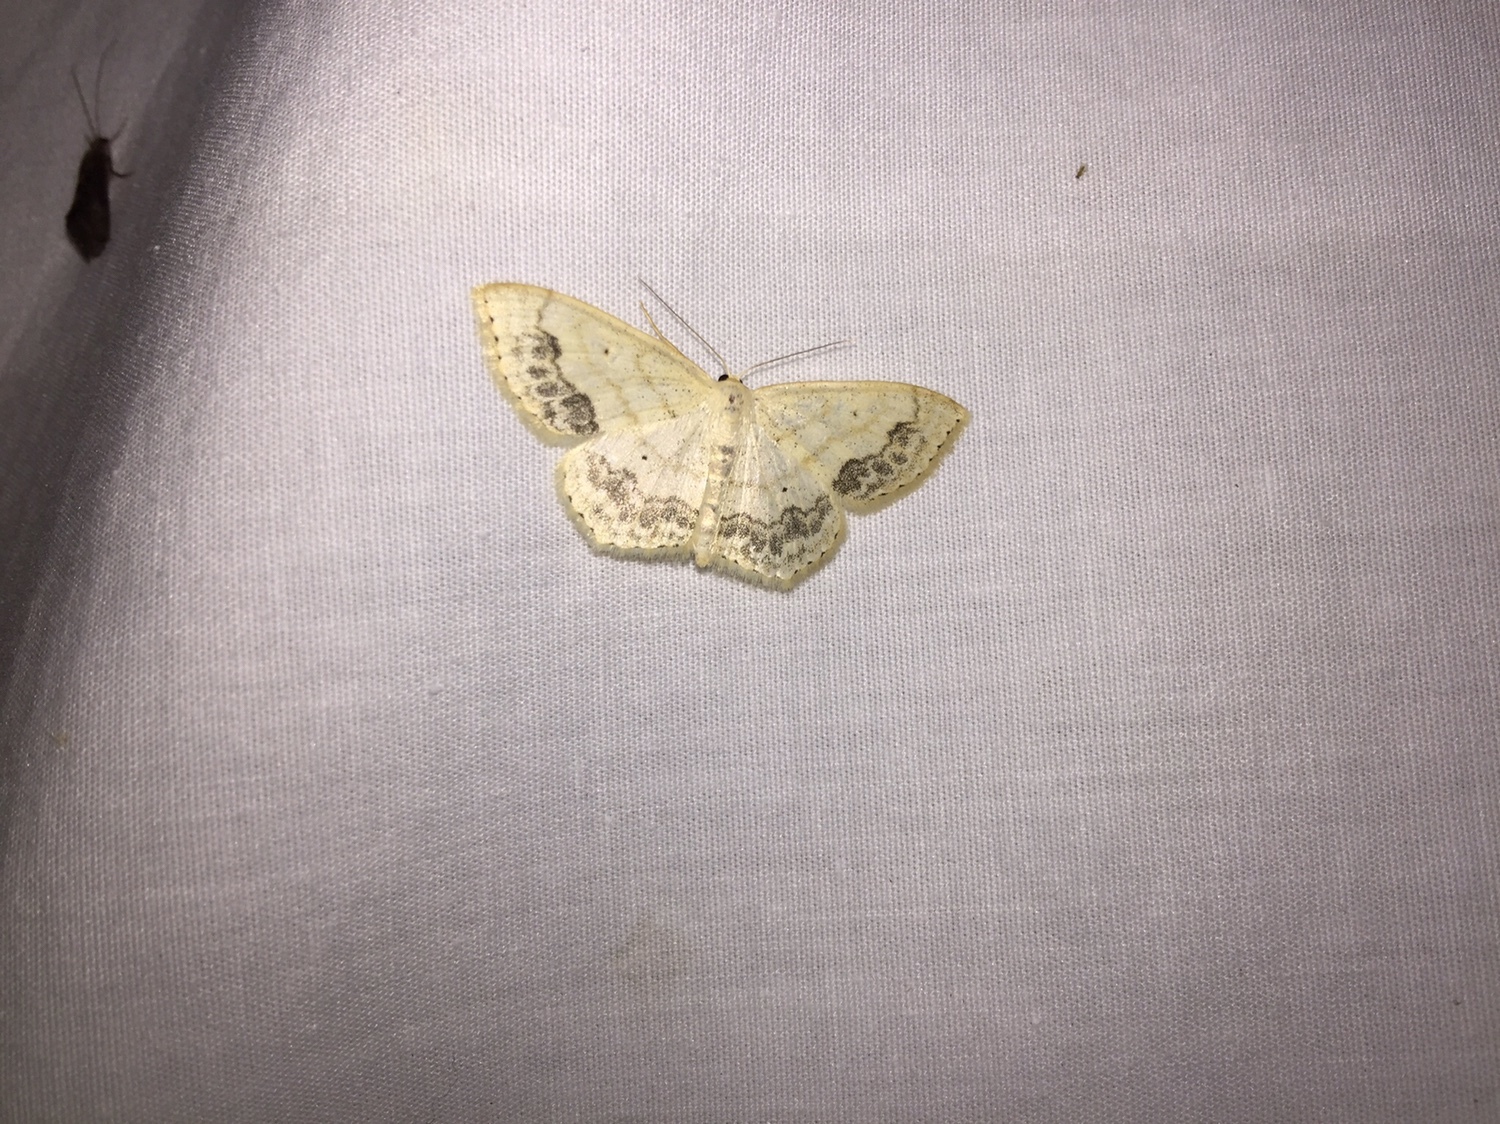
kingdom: Animalia
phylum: Arthropoda
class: Insecta
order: Lepidoptera
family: Geometridae
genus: Scopula
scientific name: Scopula limboundata
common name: Large lace border
